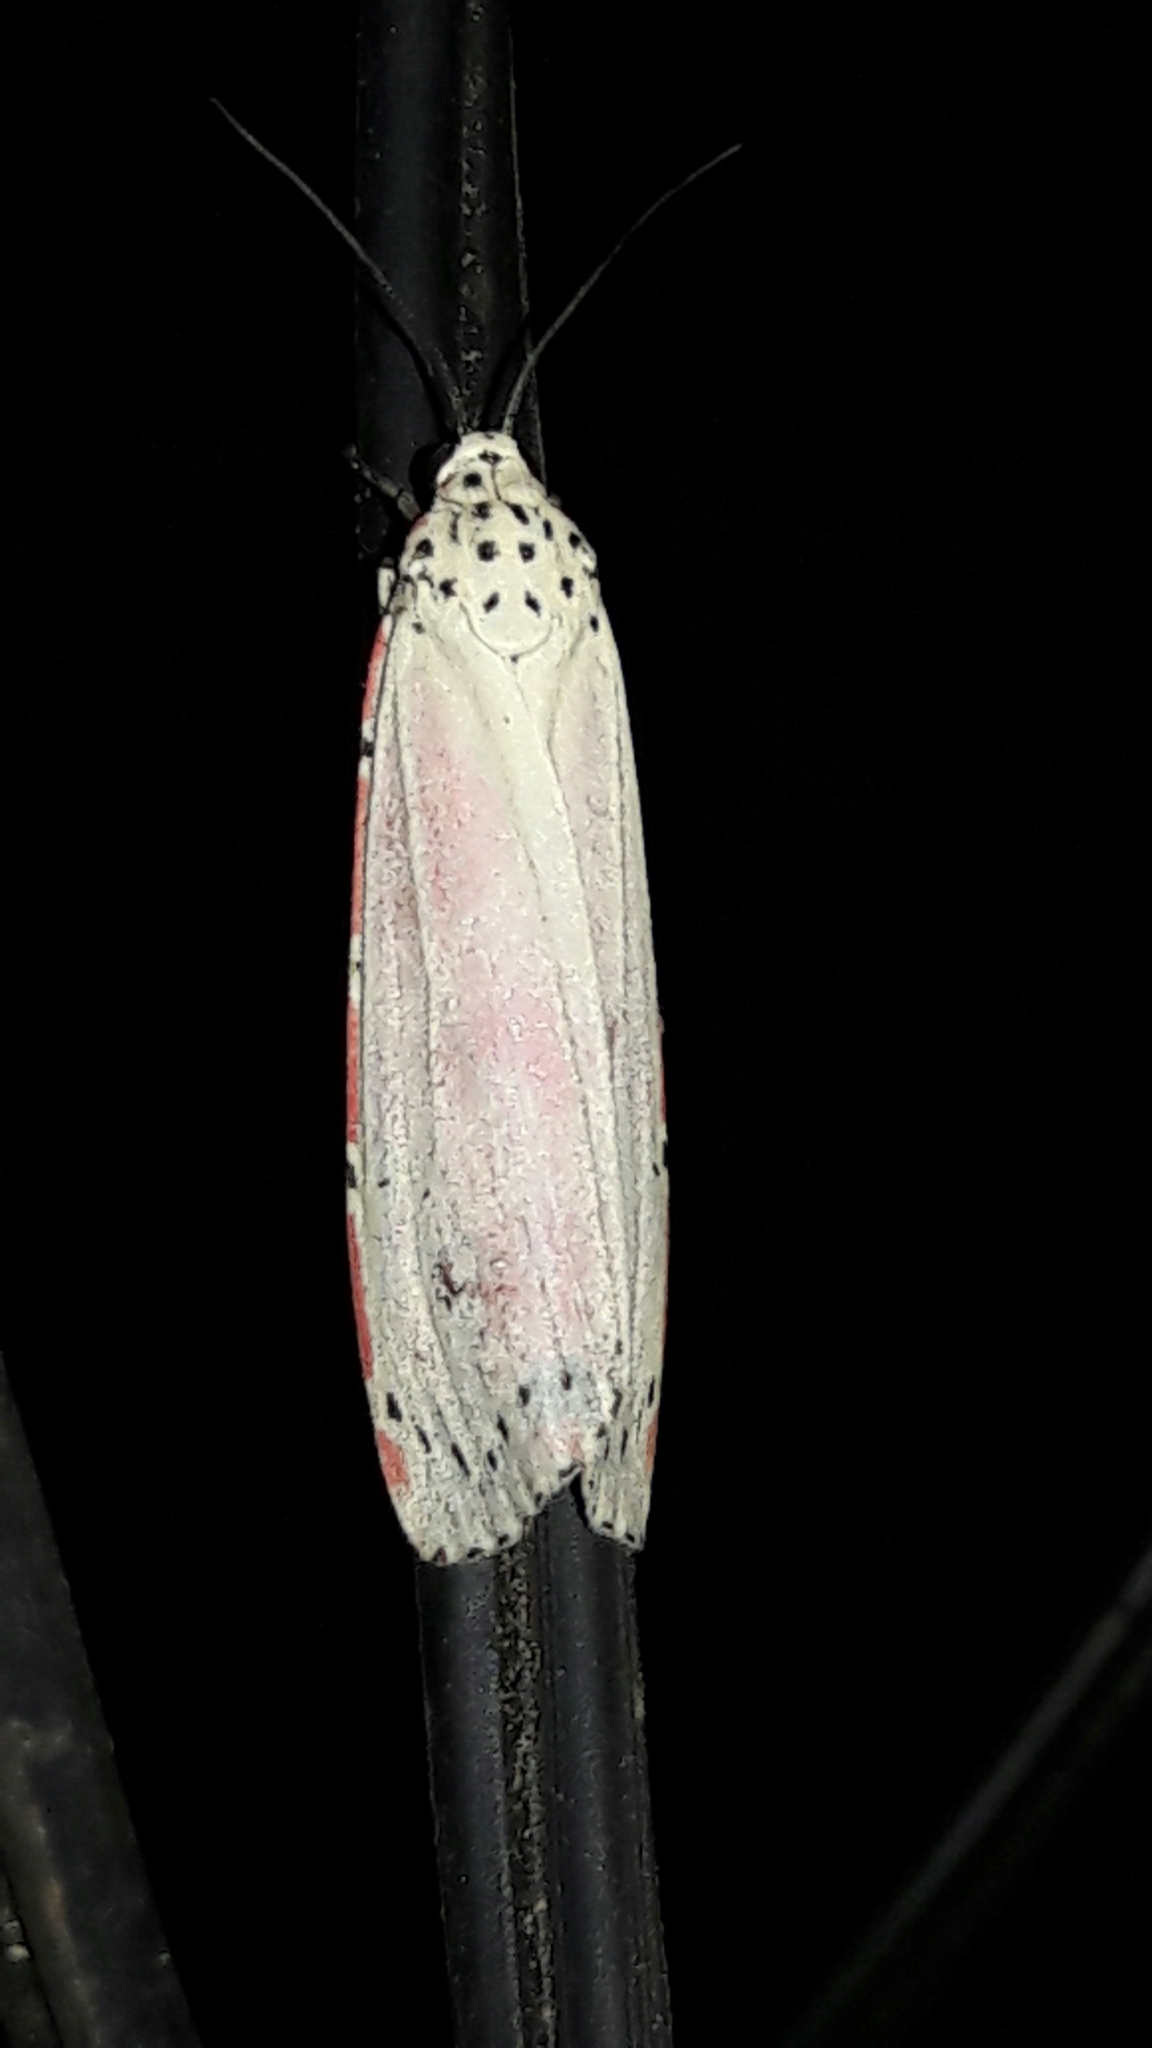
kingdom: Animalia
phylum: Arthropoda
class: Insecta
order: Lepidoptera
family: Erebidae
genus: Utetheisa
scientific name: Utetheisa ornatrix
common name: Beautiful utetheisa
